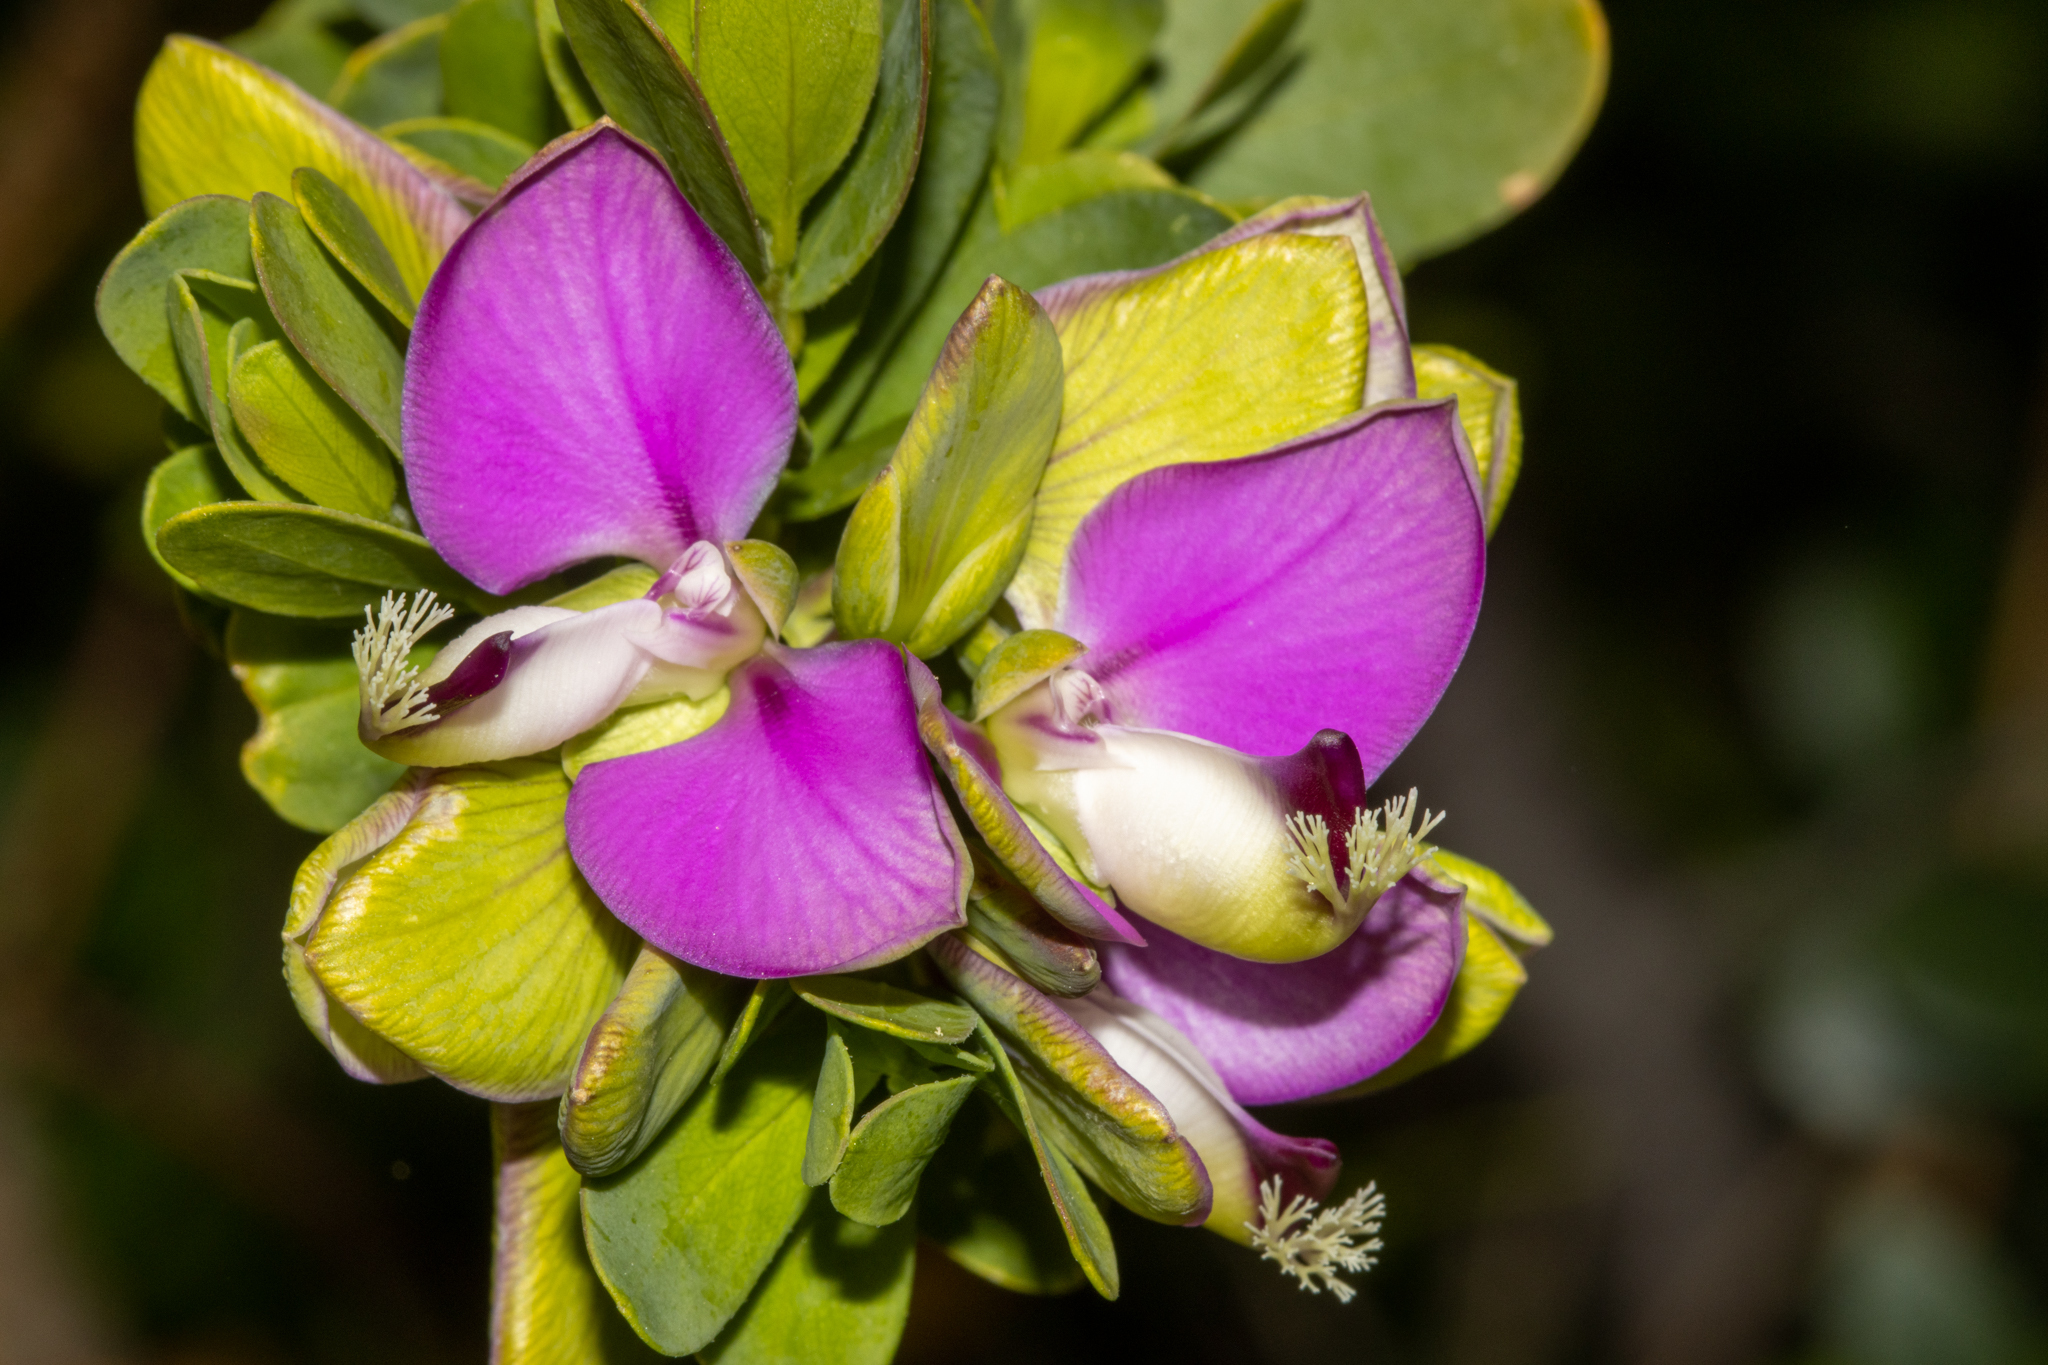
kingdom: Plantae
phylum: Tracheophyta
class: Magnoliopsida
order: Fabales
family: Polygalaceae
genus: Polygala
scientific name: Polygala myrtifolia
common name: Myrtle-leaf milkwort
